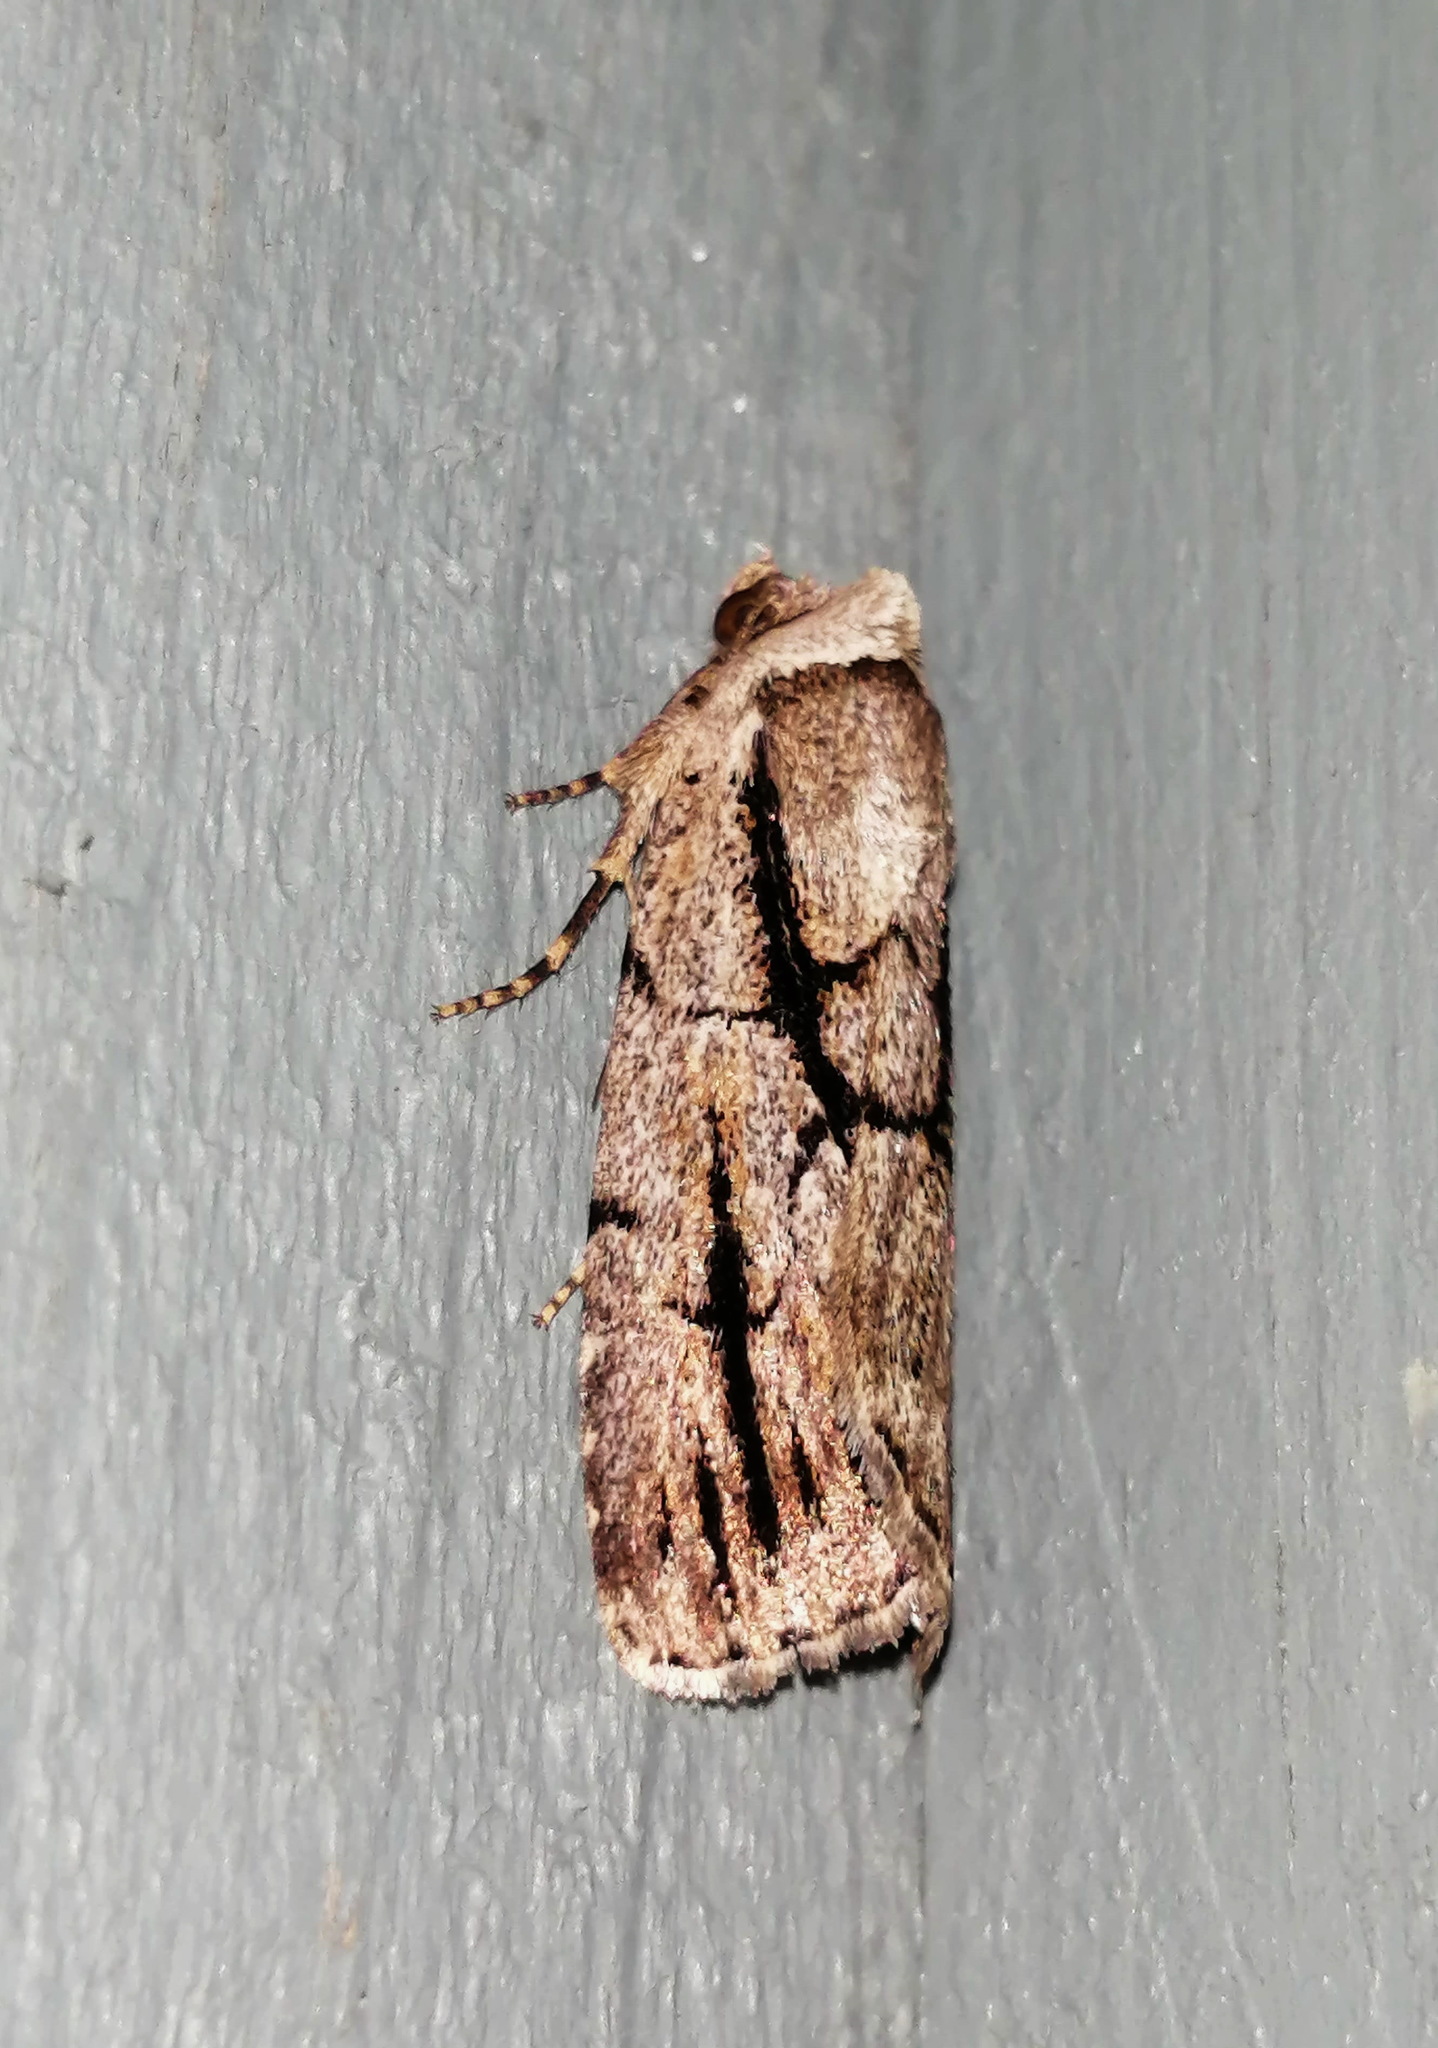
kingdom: Animalia
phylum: Arthropoda
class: Insecta
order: Lepidoptera
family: Noctuidae
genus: Sympistis
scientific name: Sympistis dinalda
